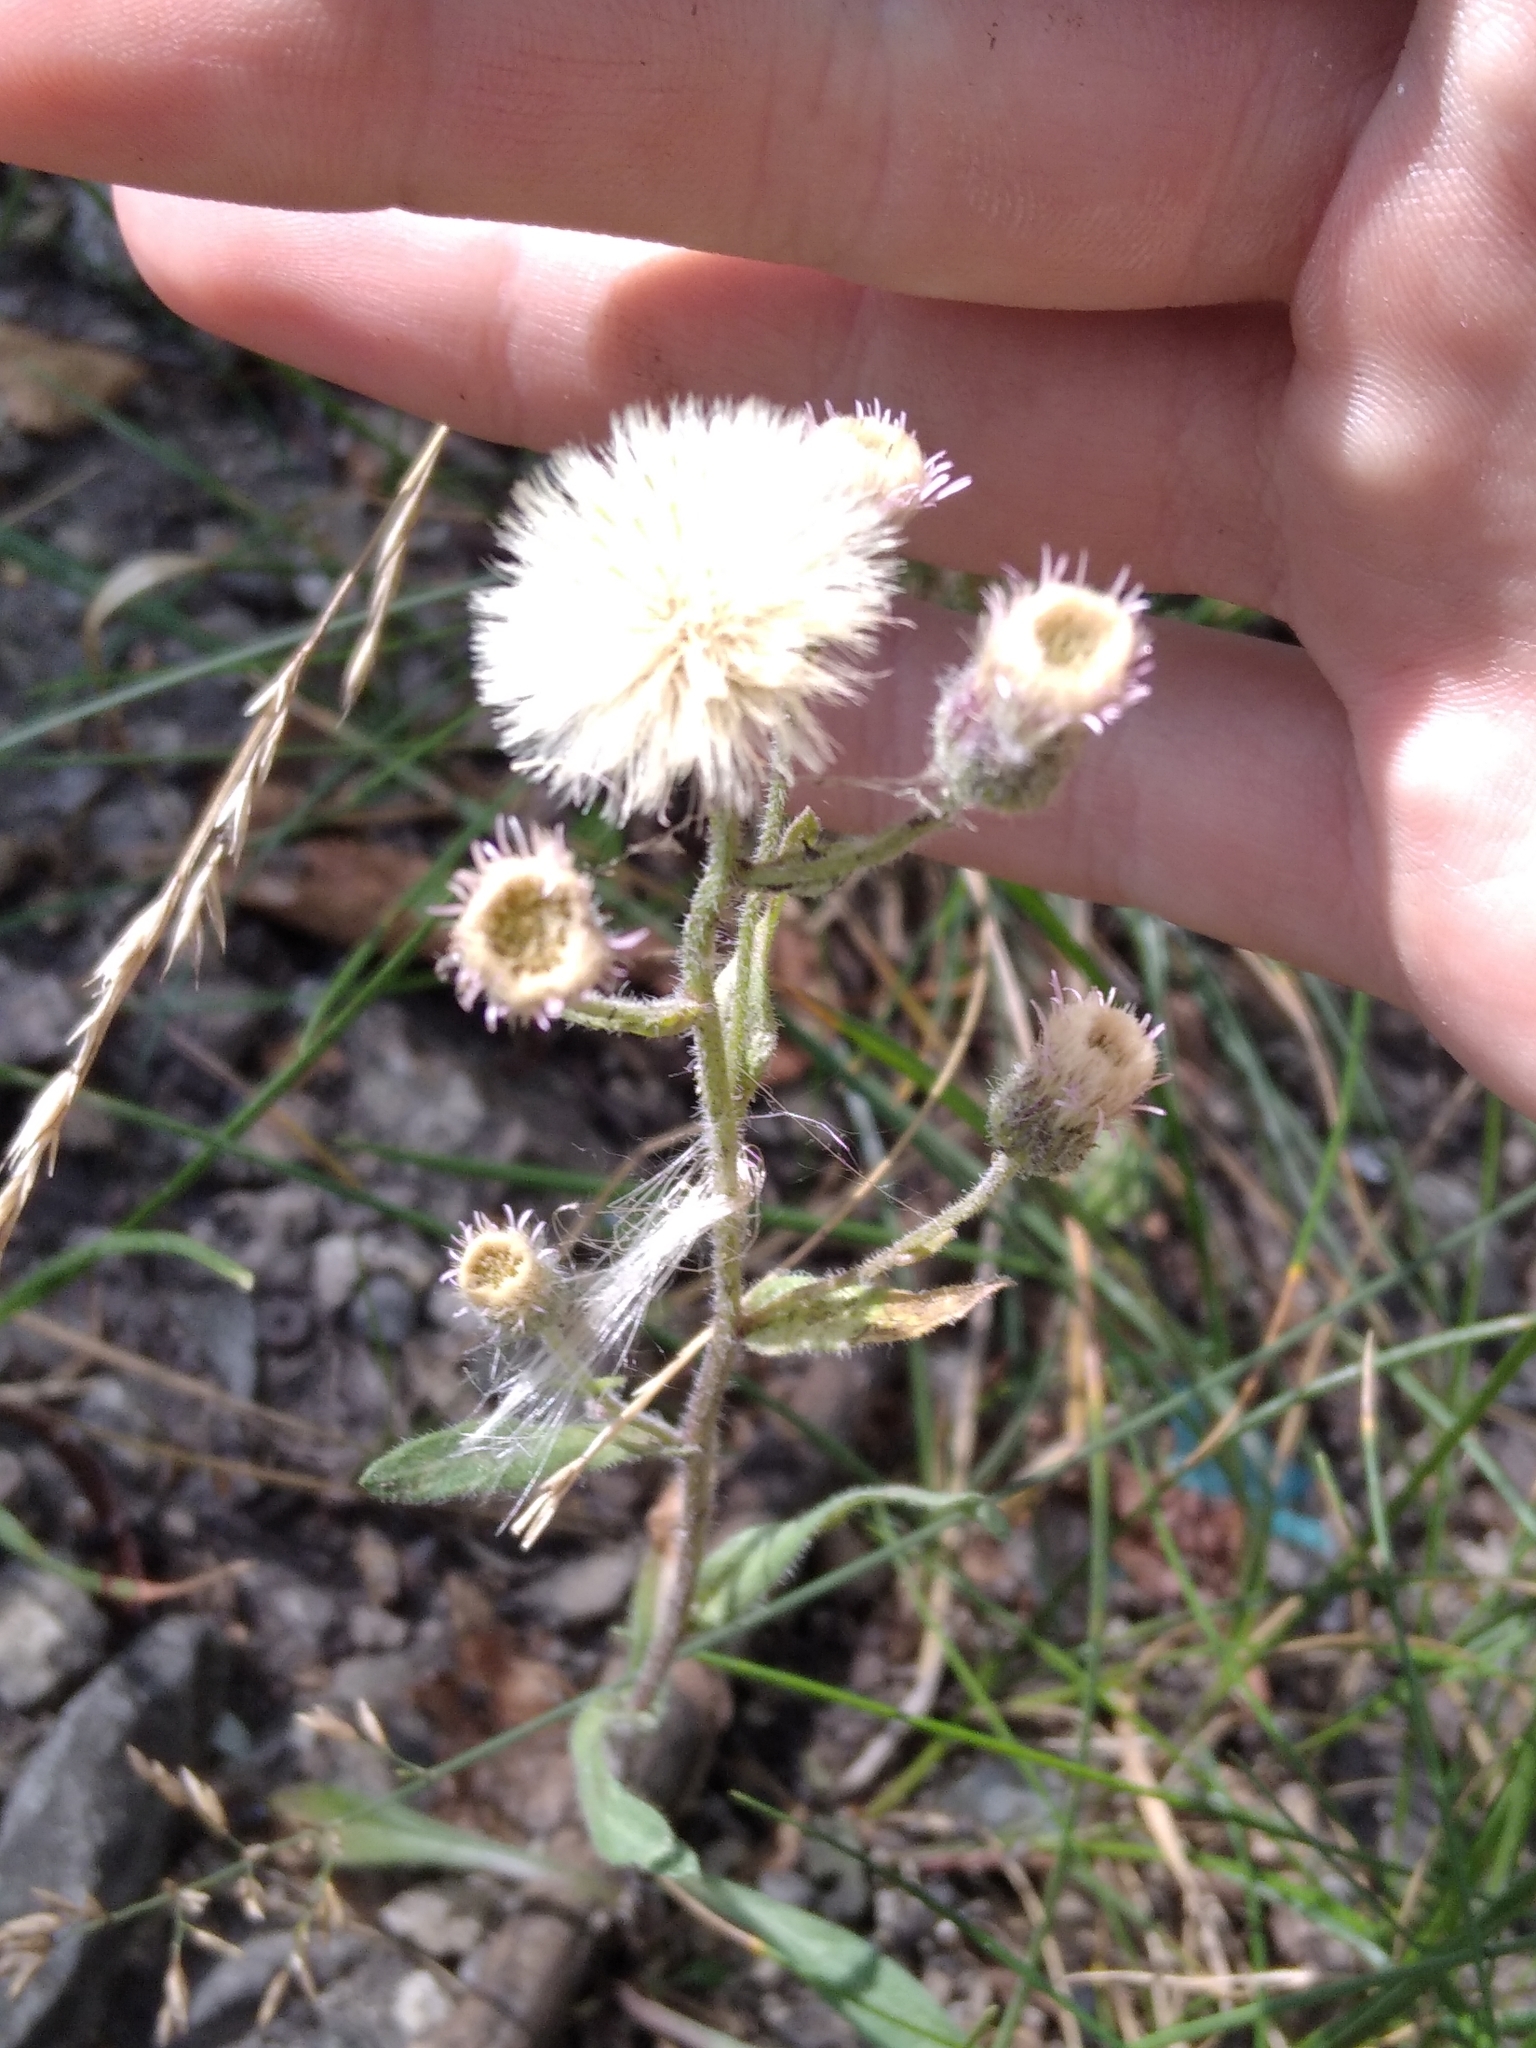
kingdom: Plantae
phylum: Tracheophyta
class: Magnoliopsida
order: Asterales
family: Asteraceae
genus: Erigeron
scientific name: Erigeron acris
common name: Blue fleabane
